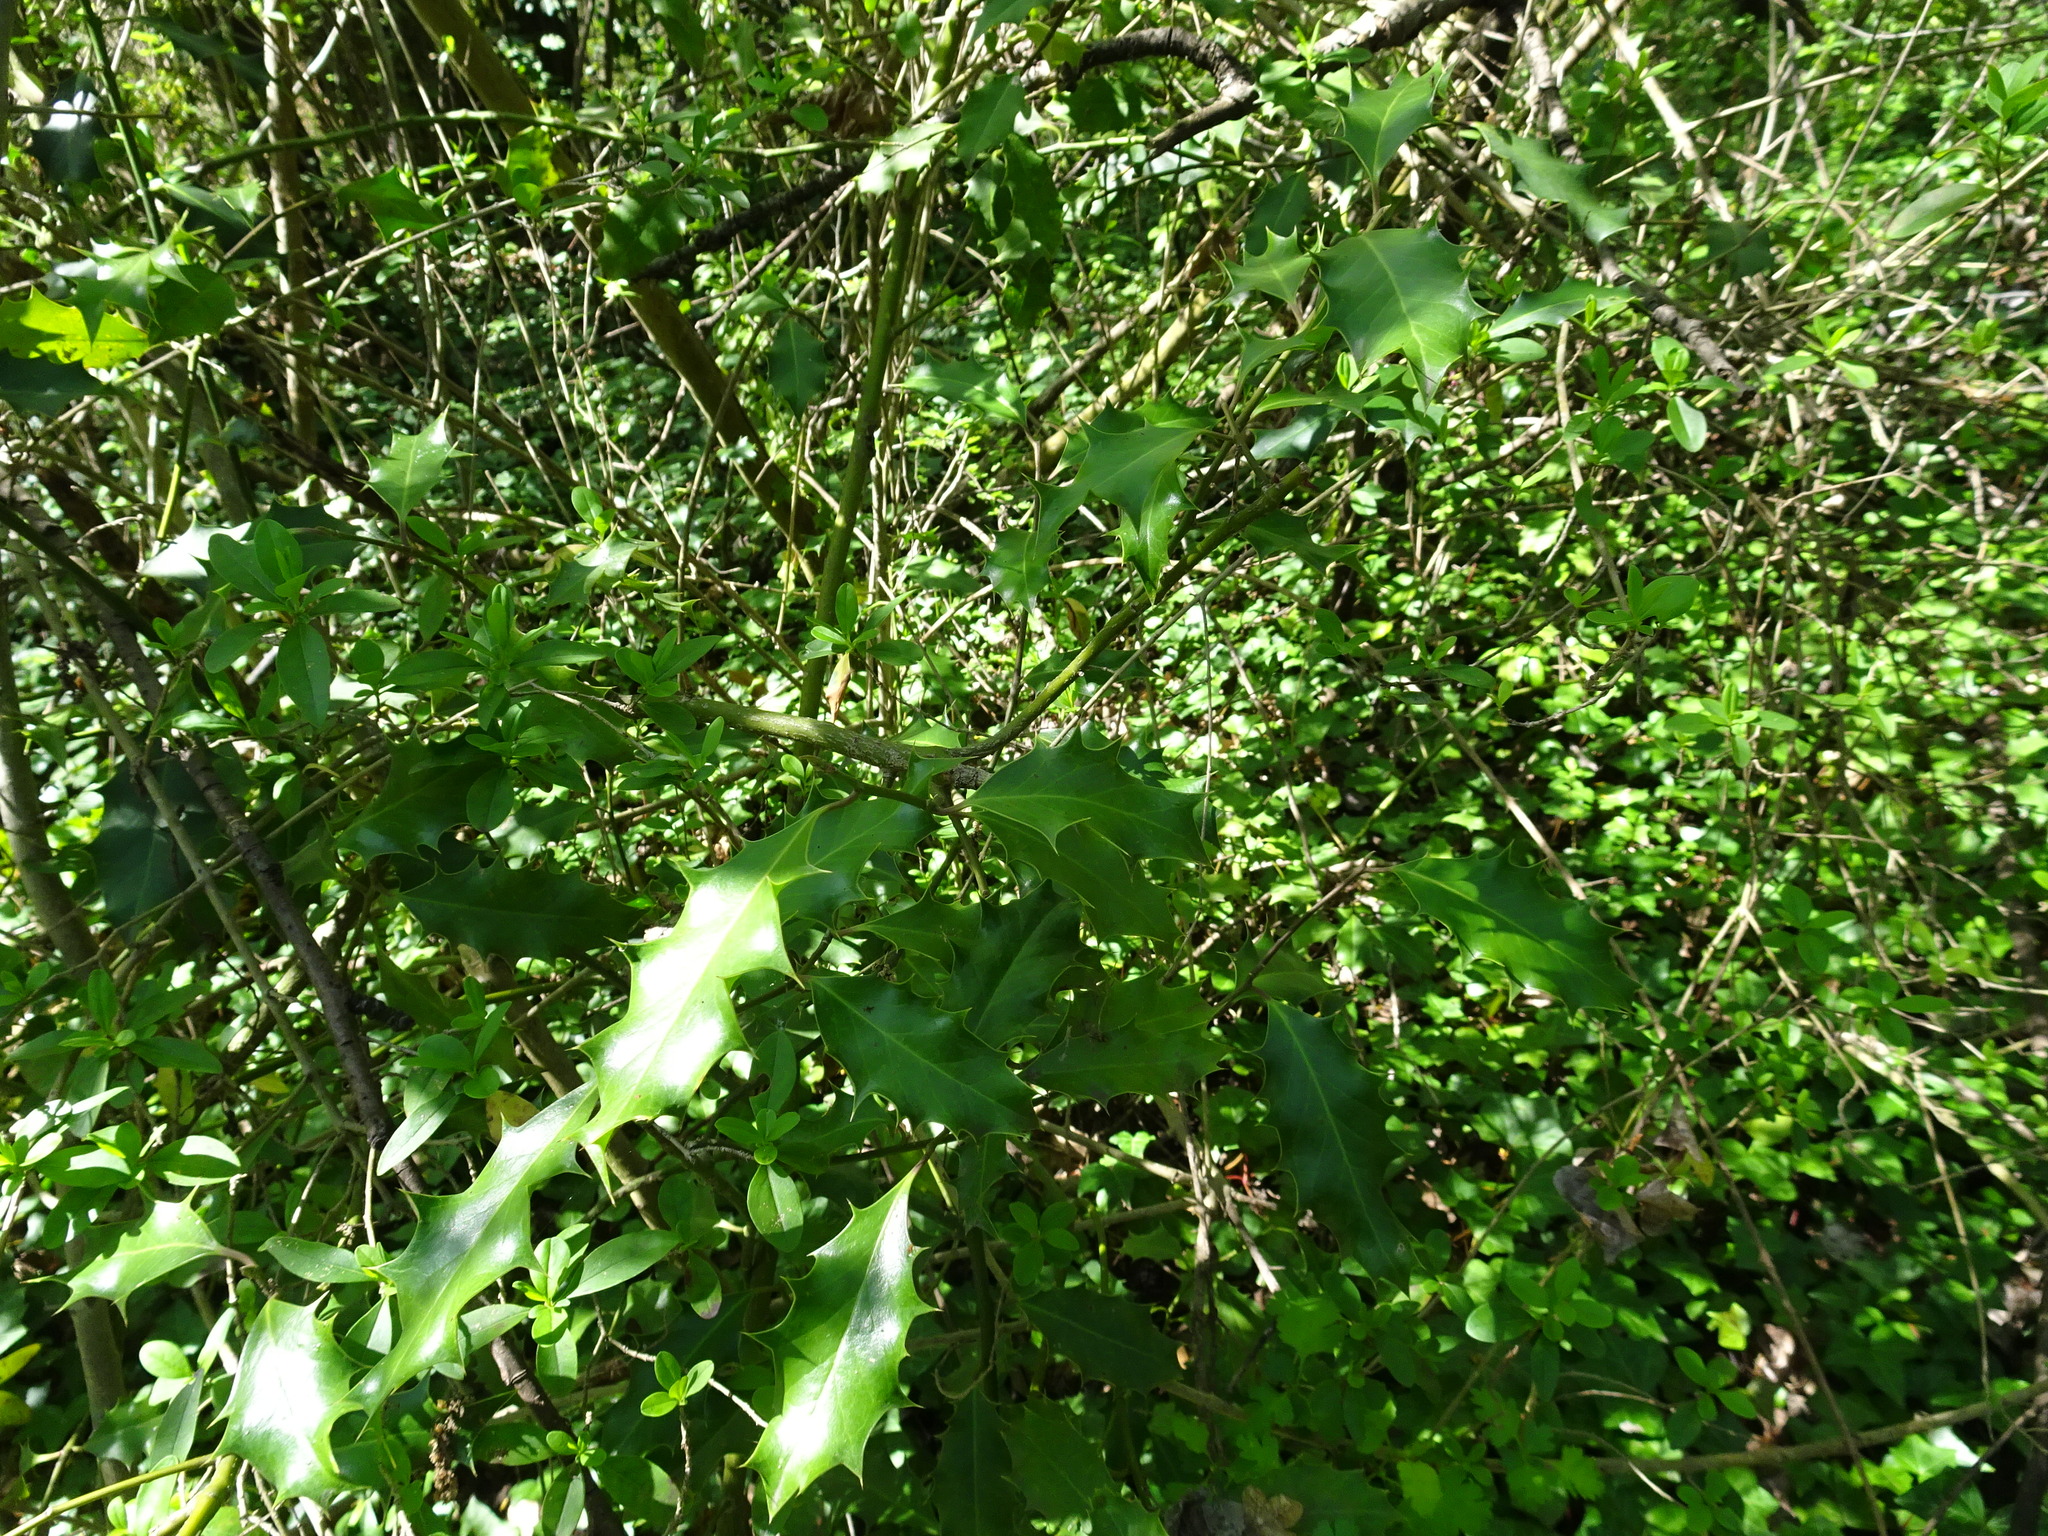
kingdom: Plantae
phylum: Tracheophyta
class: Magnoliopsida
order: Aquifoliales
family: Aquifoliaceae
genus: Ilex
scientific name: Ilex aquifolium
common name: English holly
